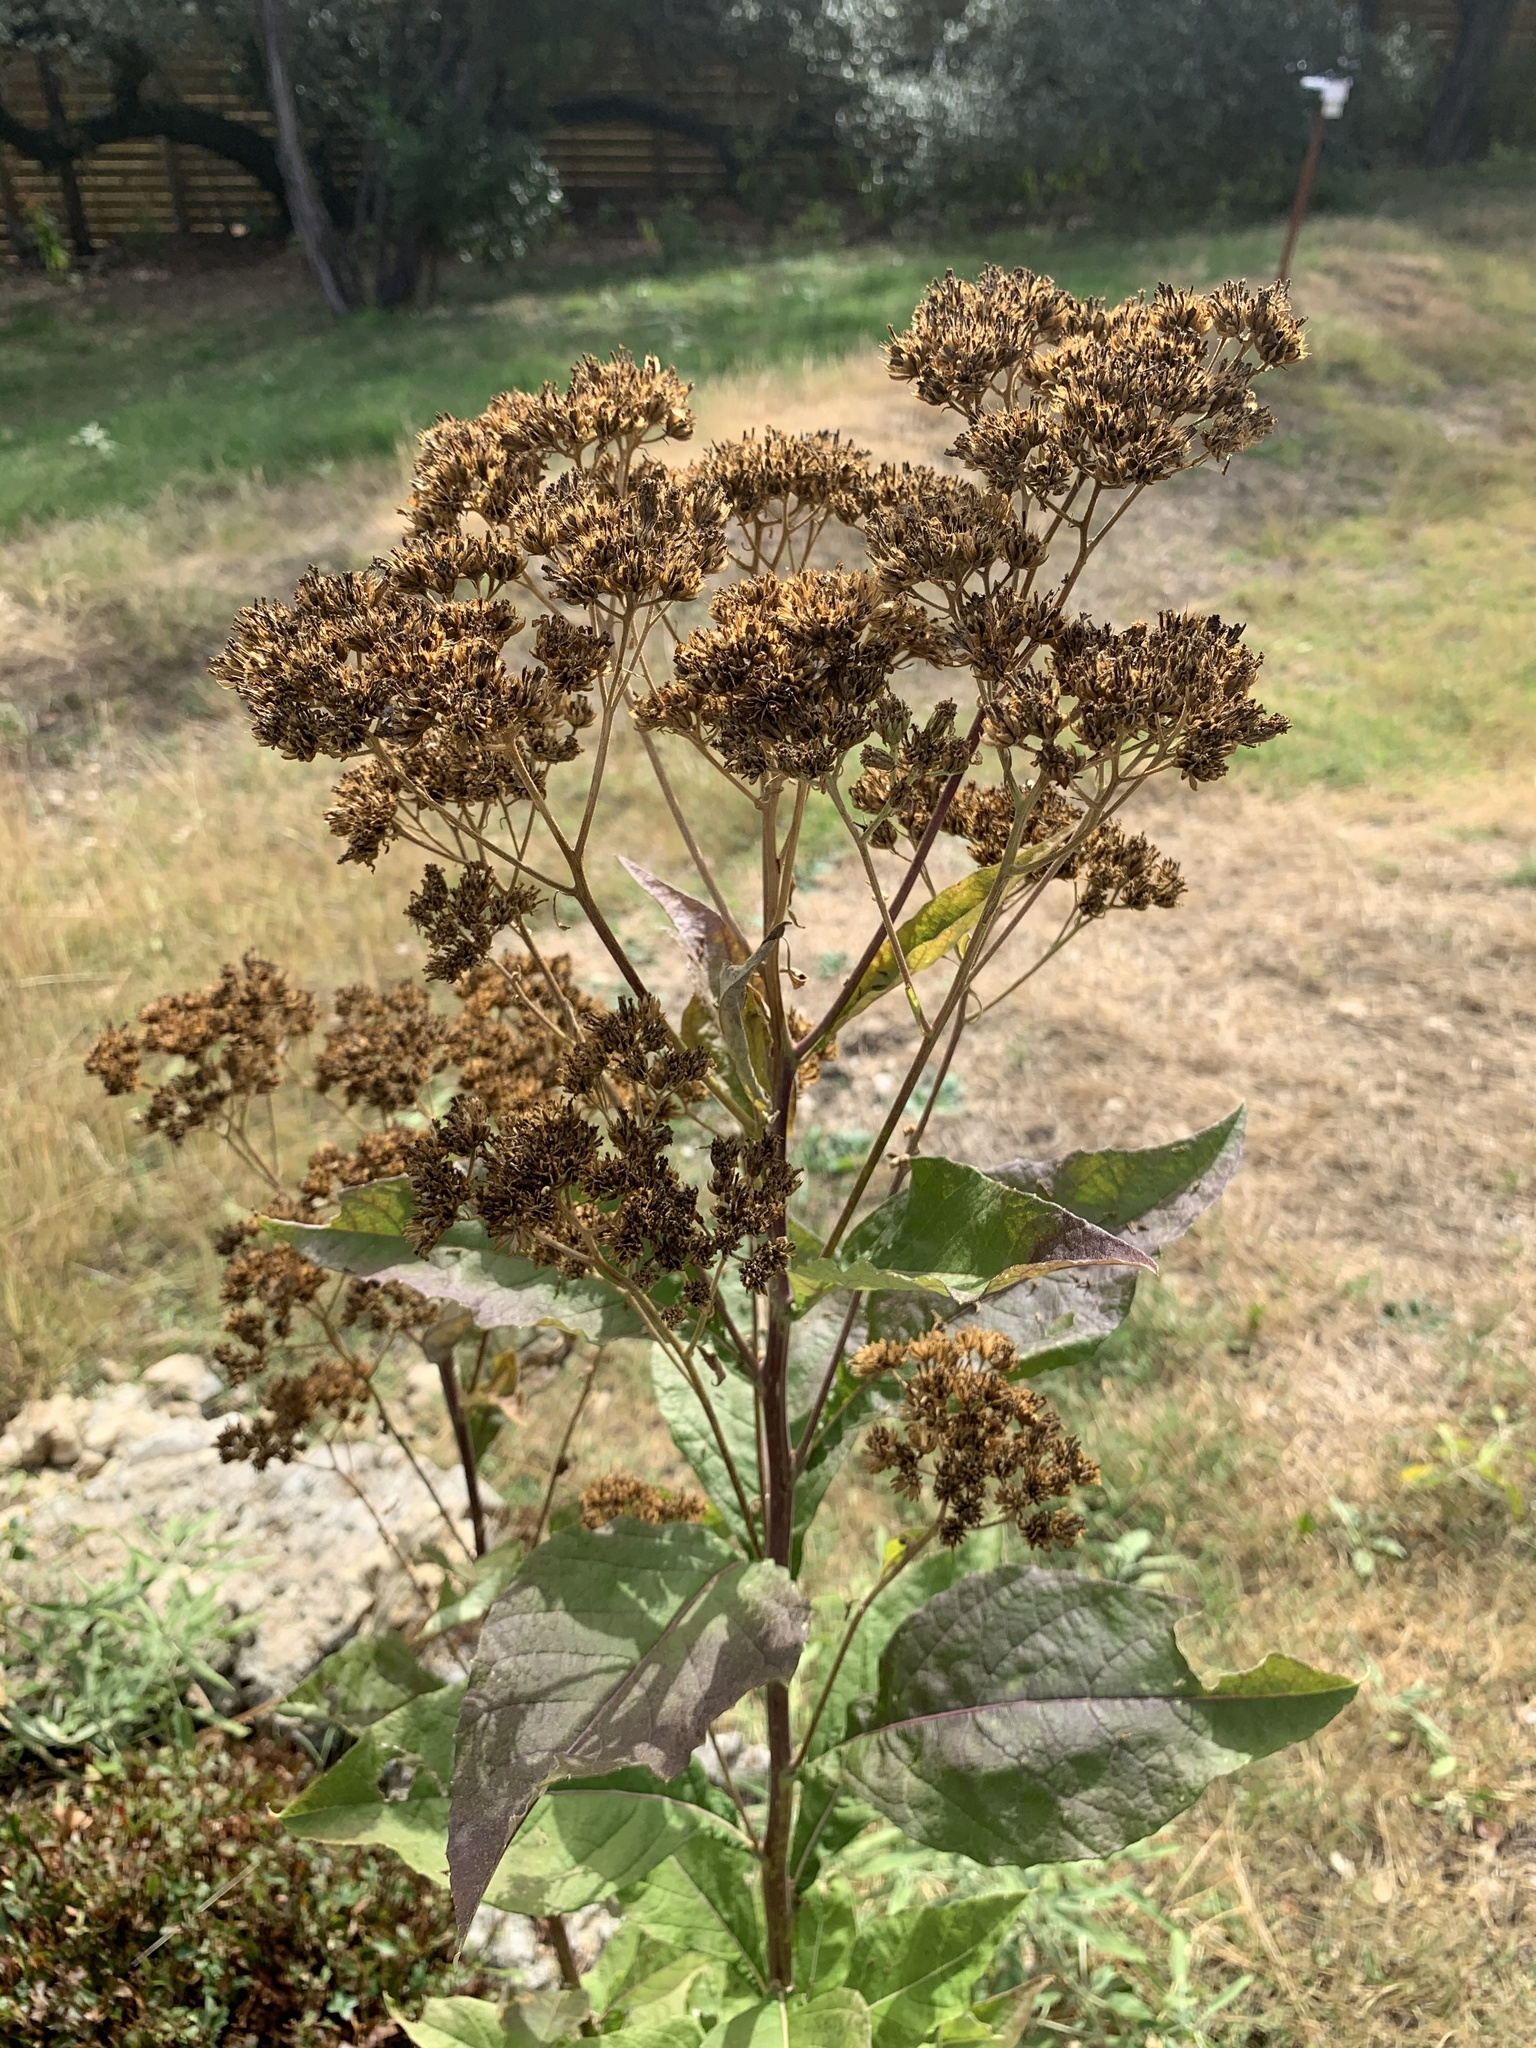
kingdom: Plantae
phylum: Tracheophyta
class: Magnoliopsida
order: Asterales
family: Asteraceae
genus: Verbesina
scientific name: Verbesina virginica
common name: Frostweed
